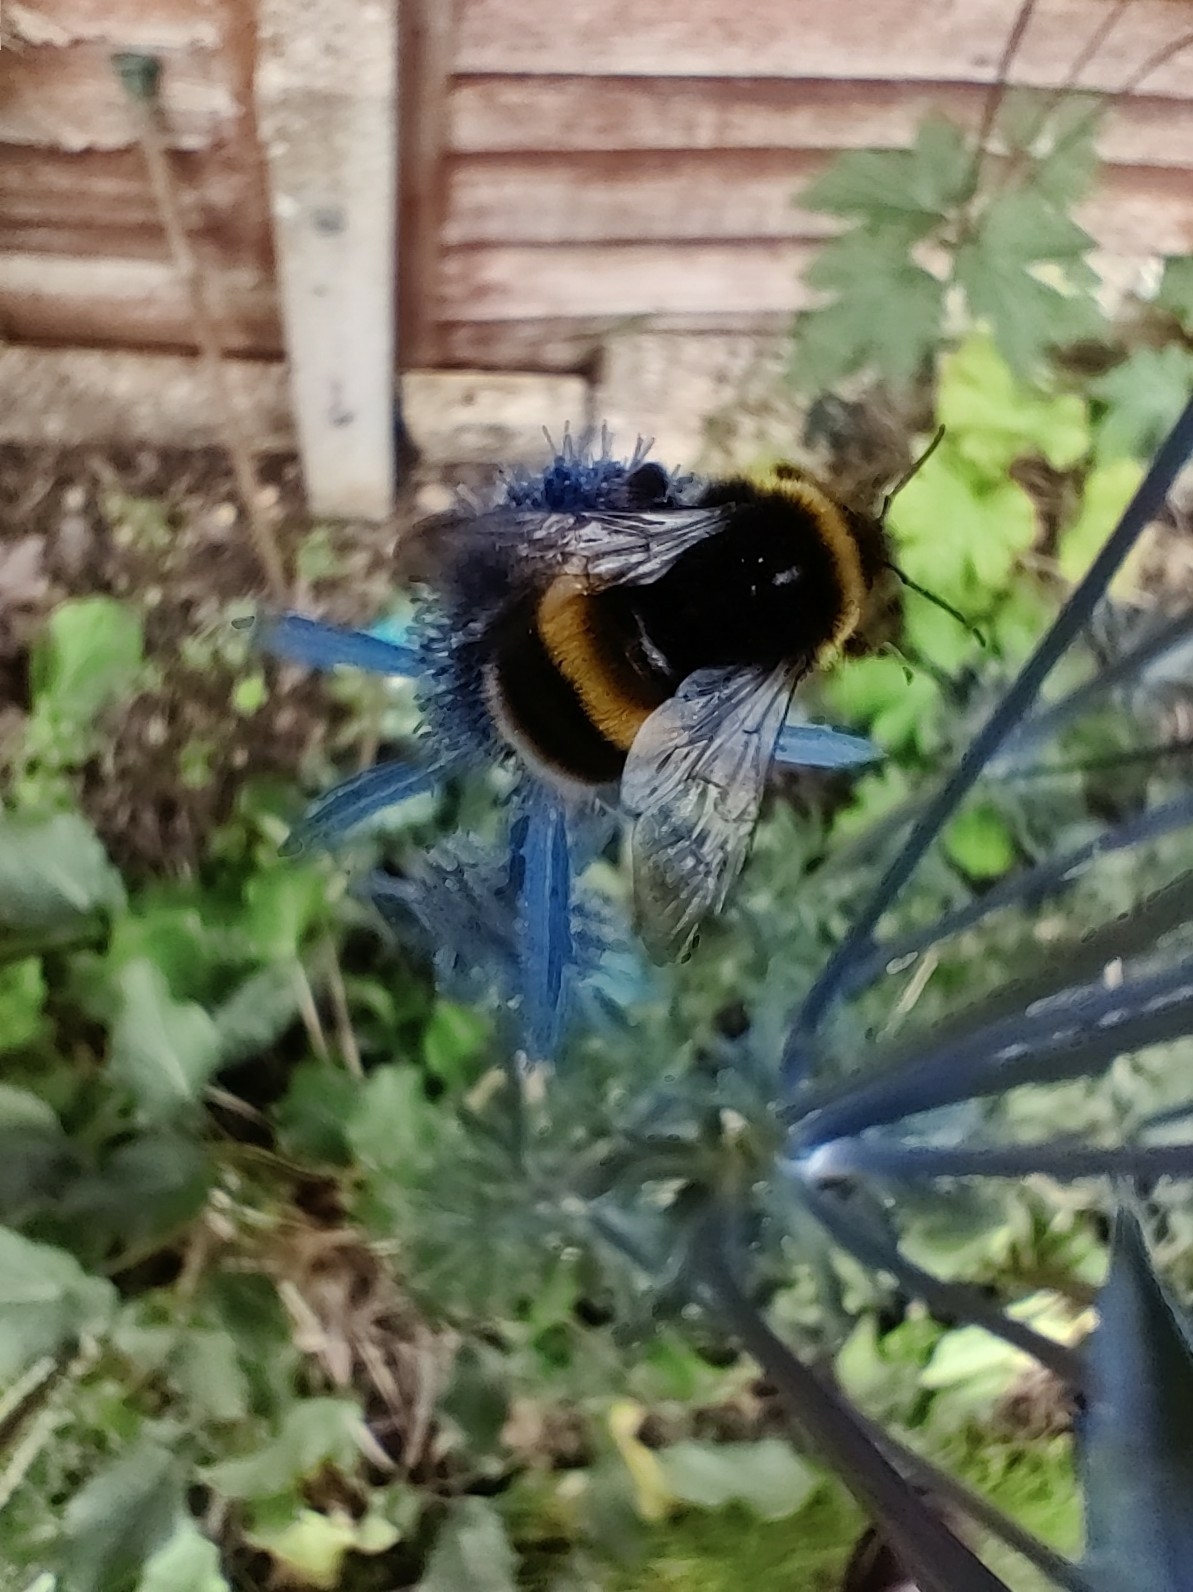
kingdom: Animalia
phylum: Arthropoda
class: Insecta
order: Hymenoptera
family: Apidae
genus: Bombus
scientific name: Bombus terrestris
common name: Buff-tailed bumblebee
